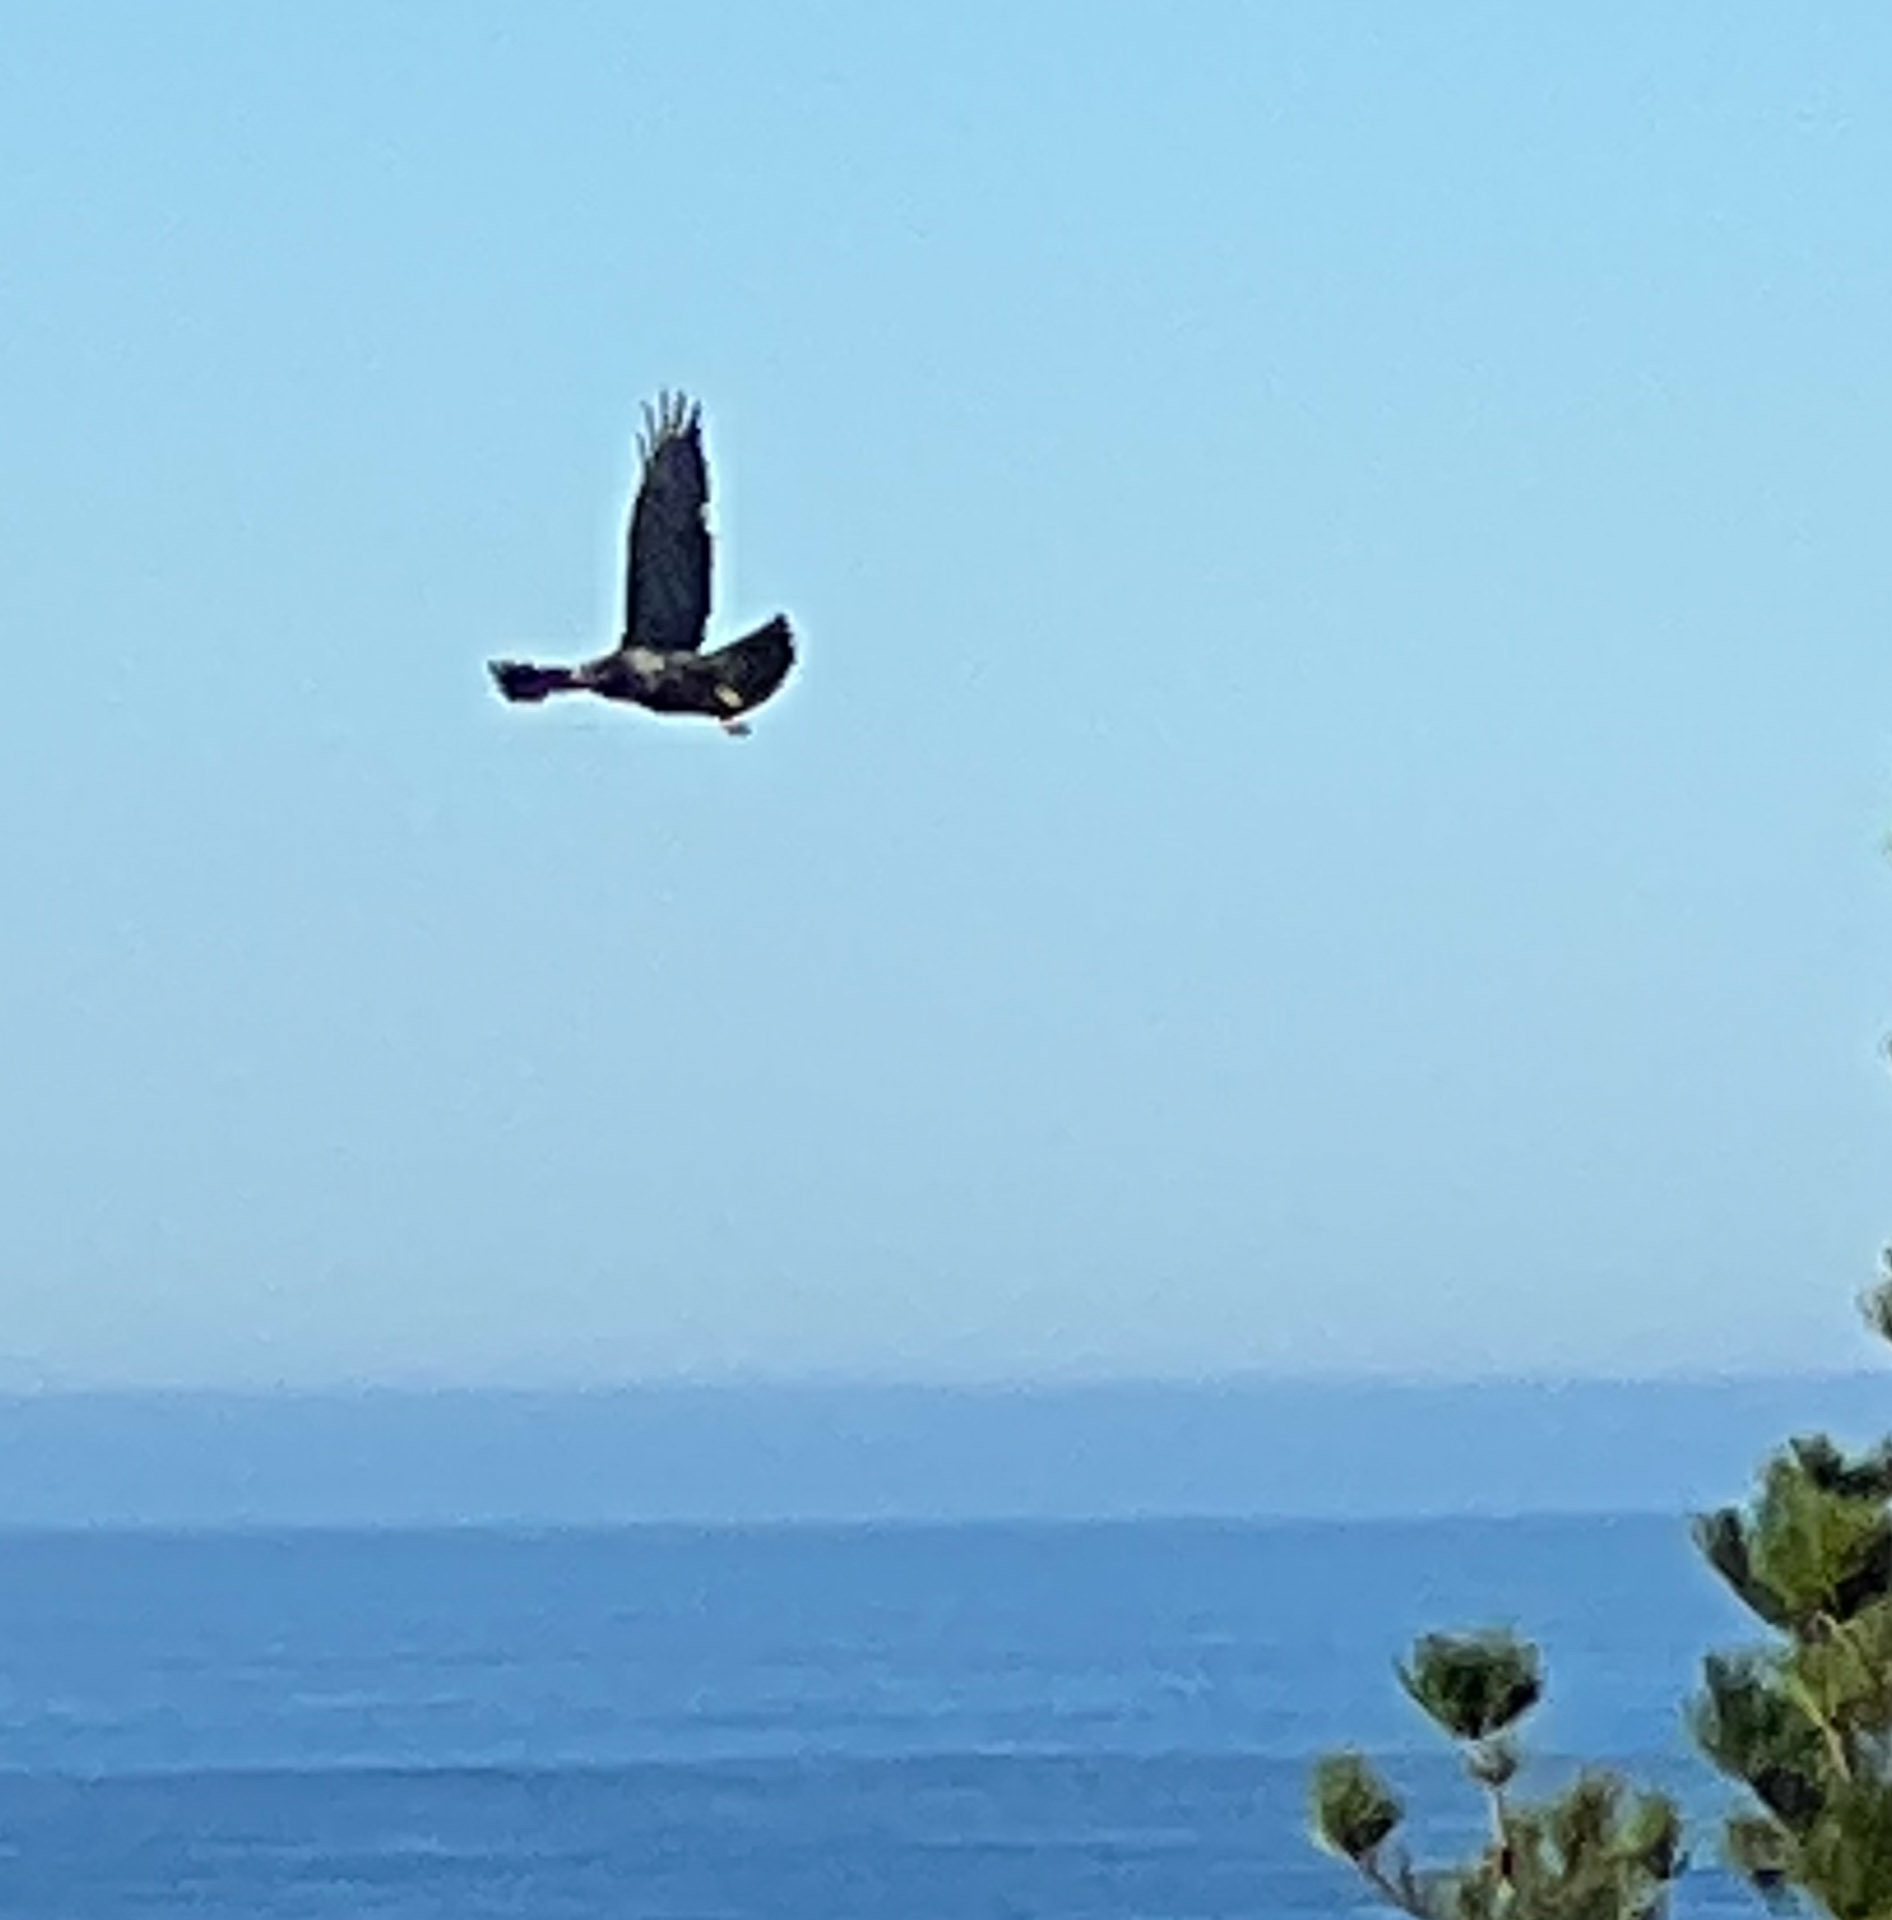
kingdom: Animalia
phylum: Chordata
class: Aves
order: Accipitriformes
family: Accipitridae
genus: Buteo
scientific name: Buteo jamaicensis
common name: Red-tailed hawk
